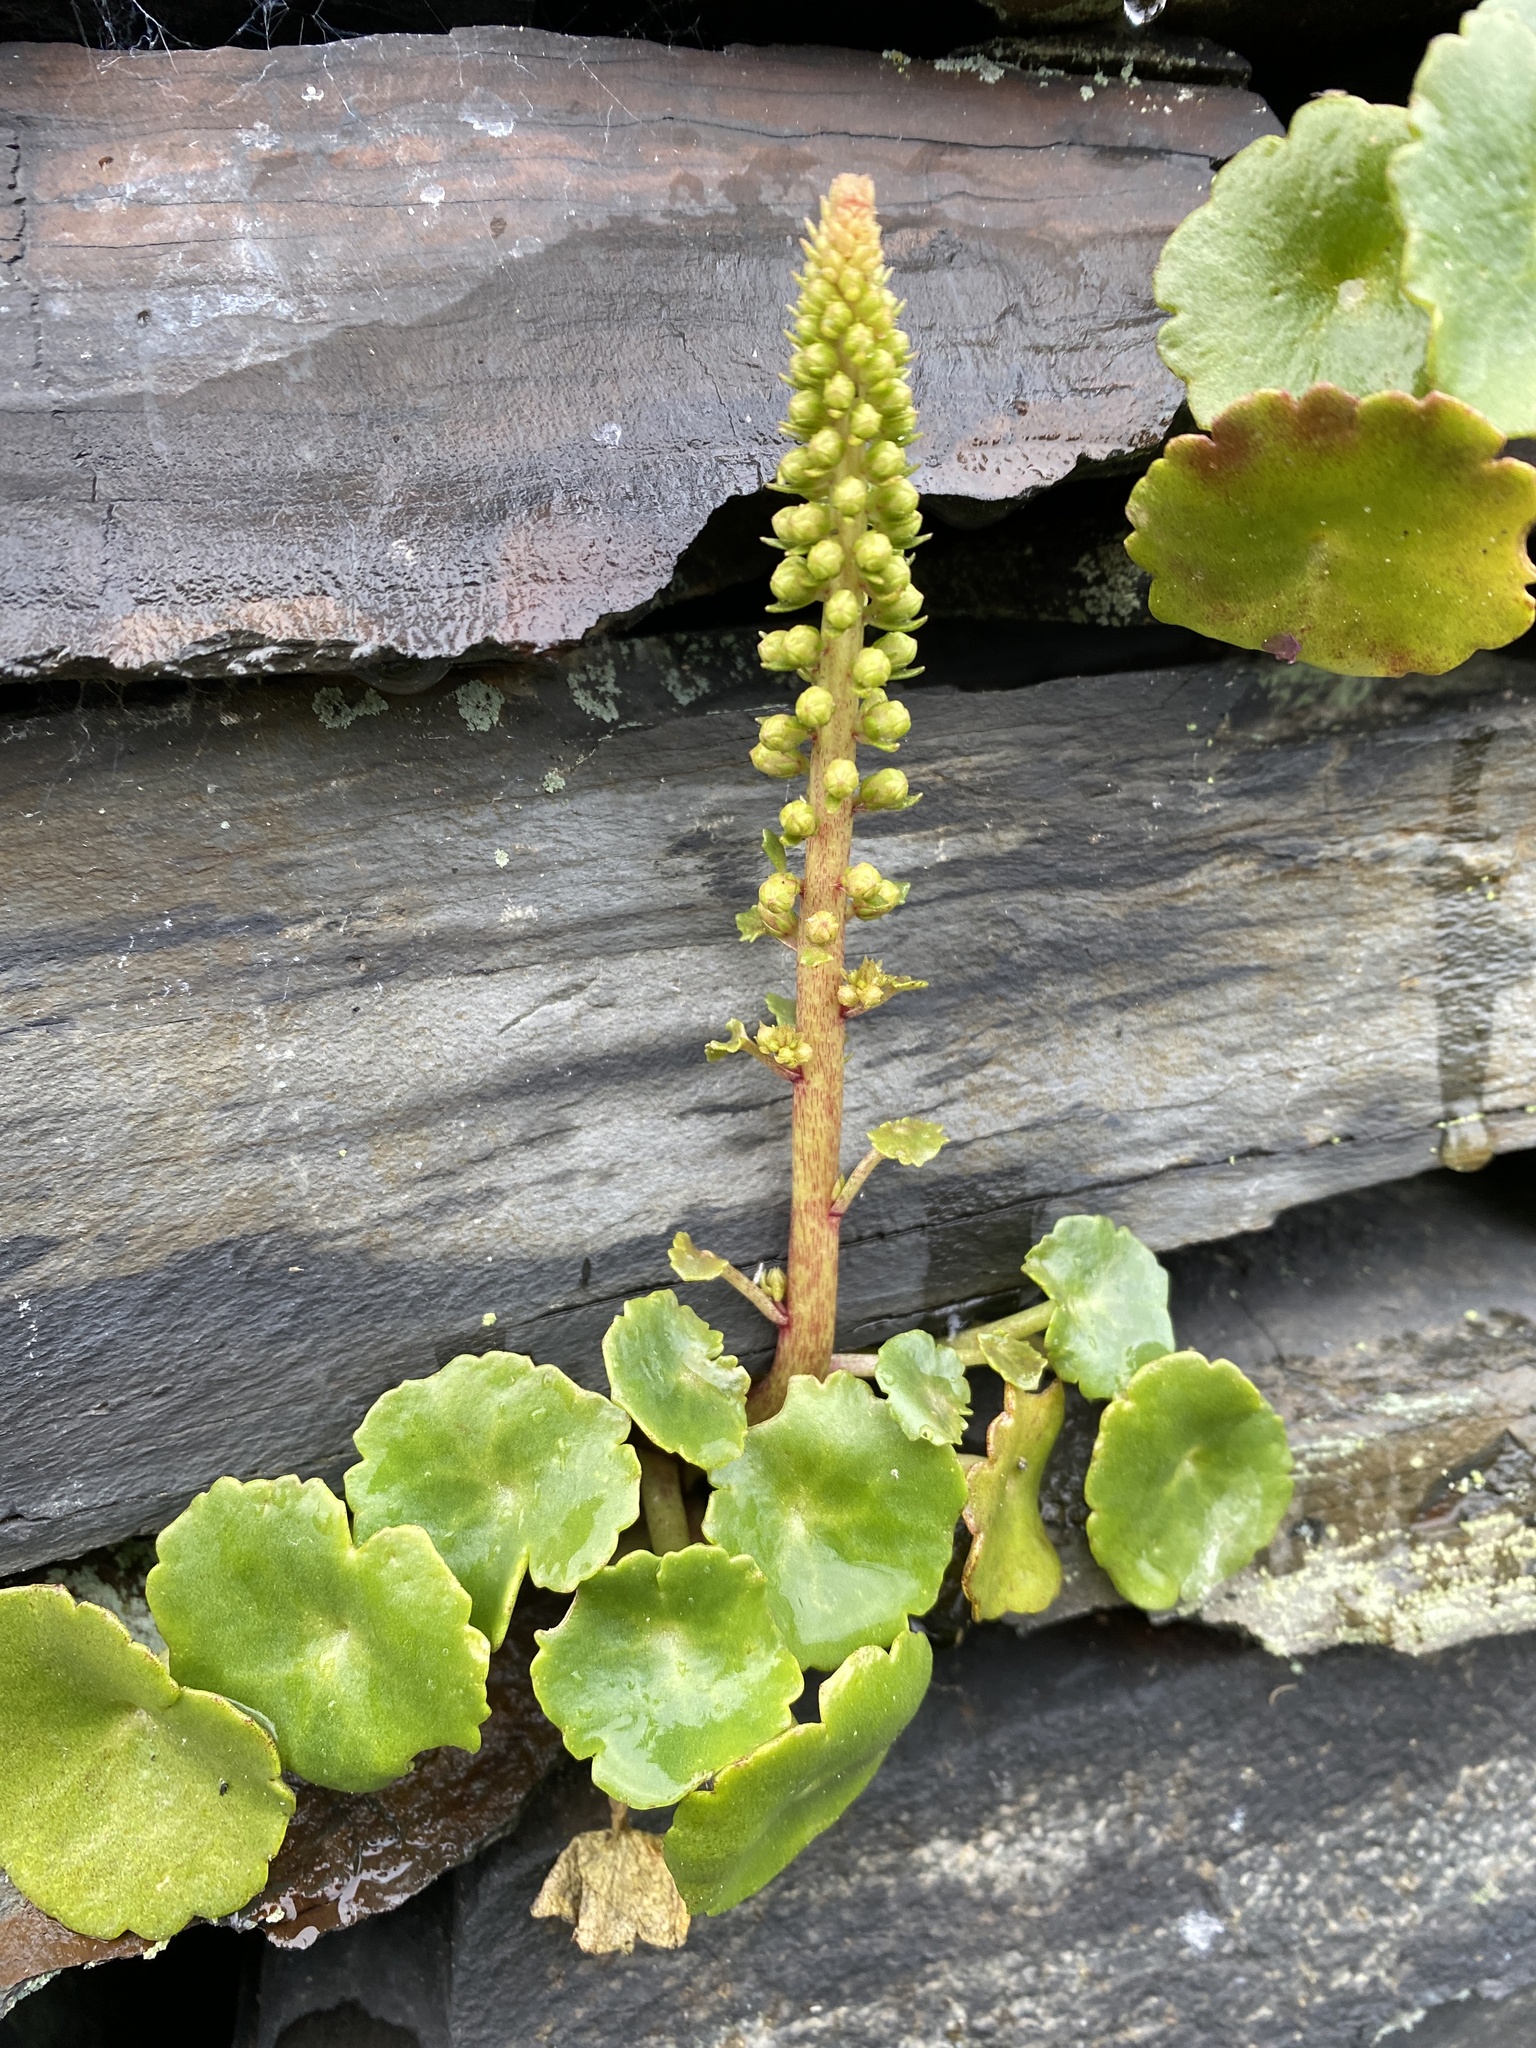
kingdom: Plantae
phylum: Tracheophyta
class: Magnoliopsida
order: Saxifragales
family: Crassulaceae
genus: Umbilicus
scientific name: Umbilicus rupestris
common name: Navelwort
